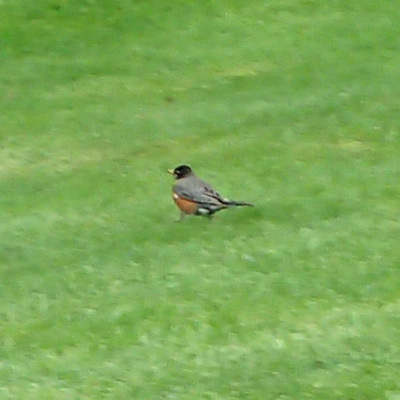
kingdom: Animalia
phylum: Chordata
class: Aves
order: Passeriformes
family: Turdidae
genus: Turdus
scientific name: Turdus migratorius
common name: American robin
